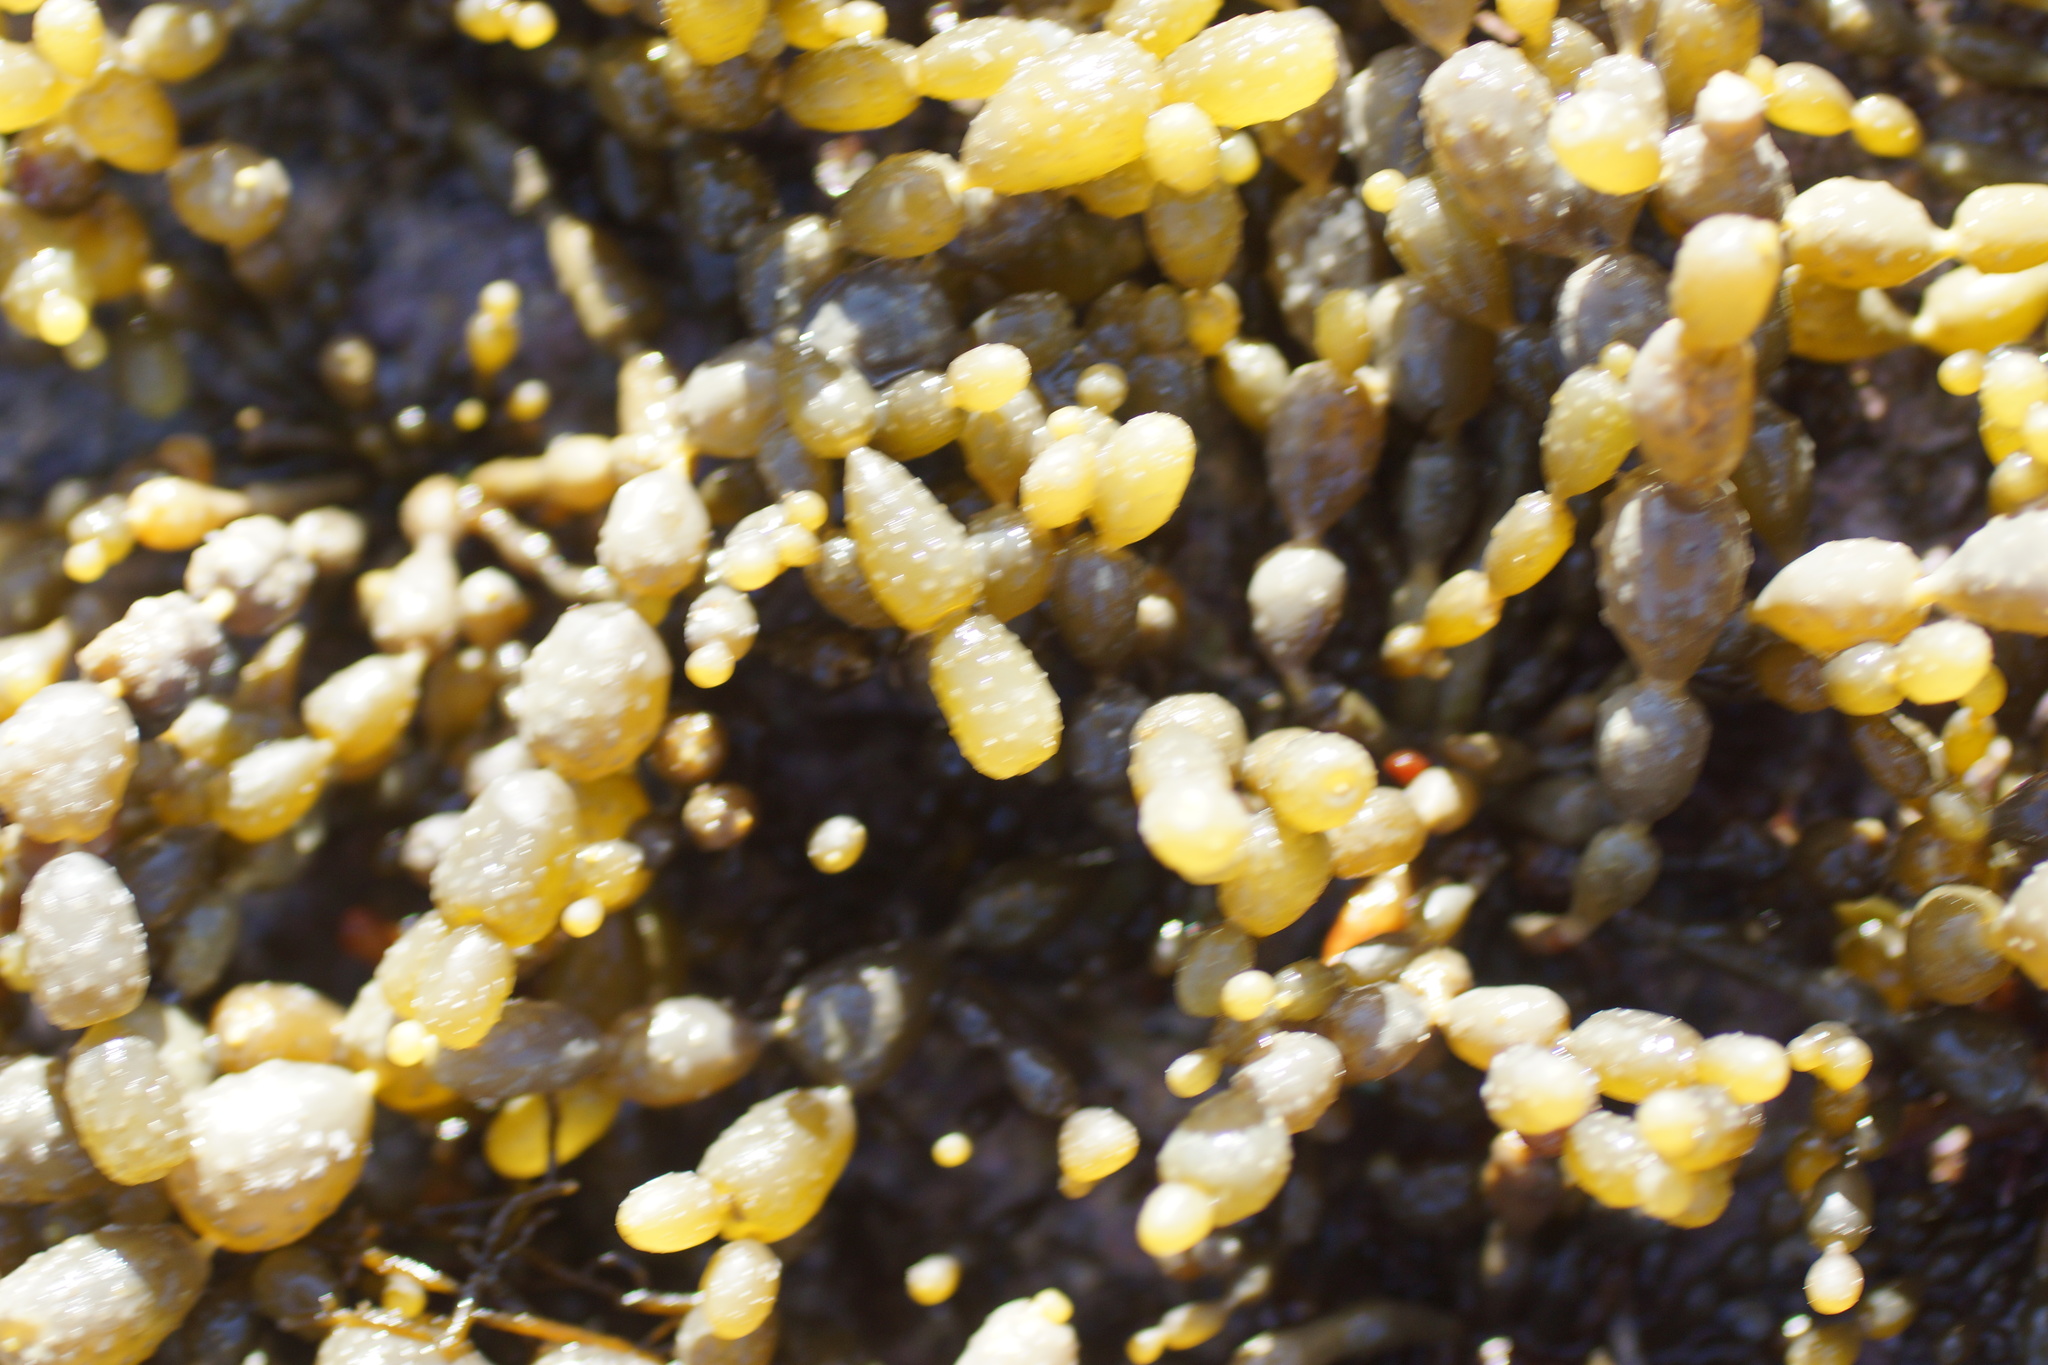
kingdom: Chromista
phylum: Ochrophyta
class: Phaeophyceae
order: Fucales
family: Hormosiraceae
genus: Hormosira
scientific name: Hormosira banksii
